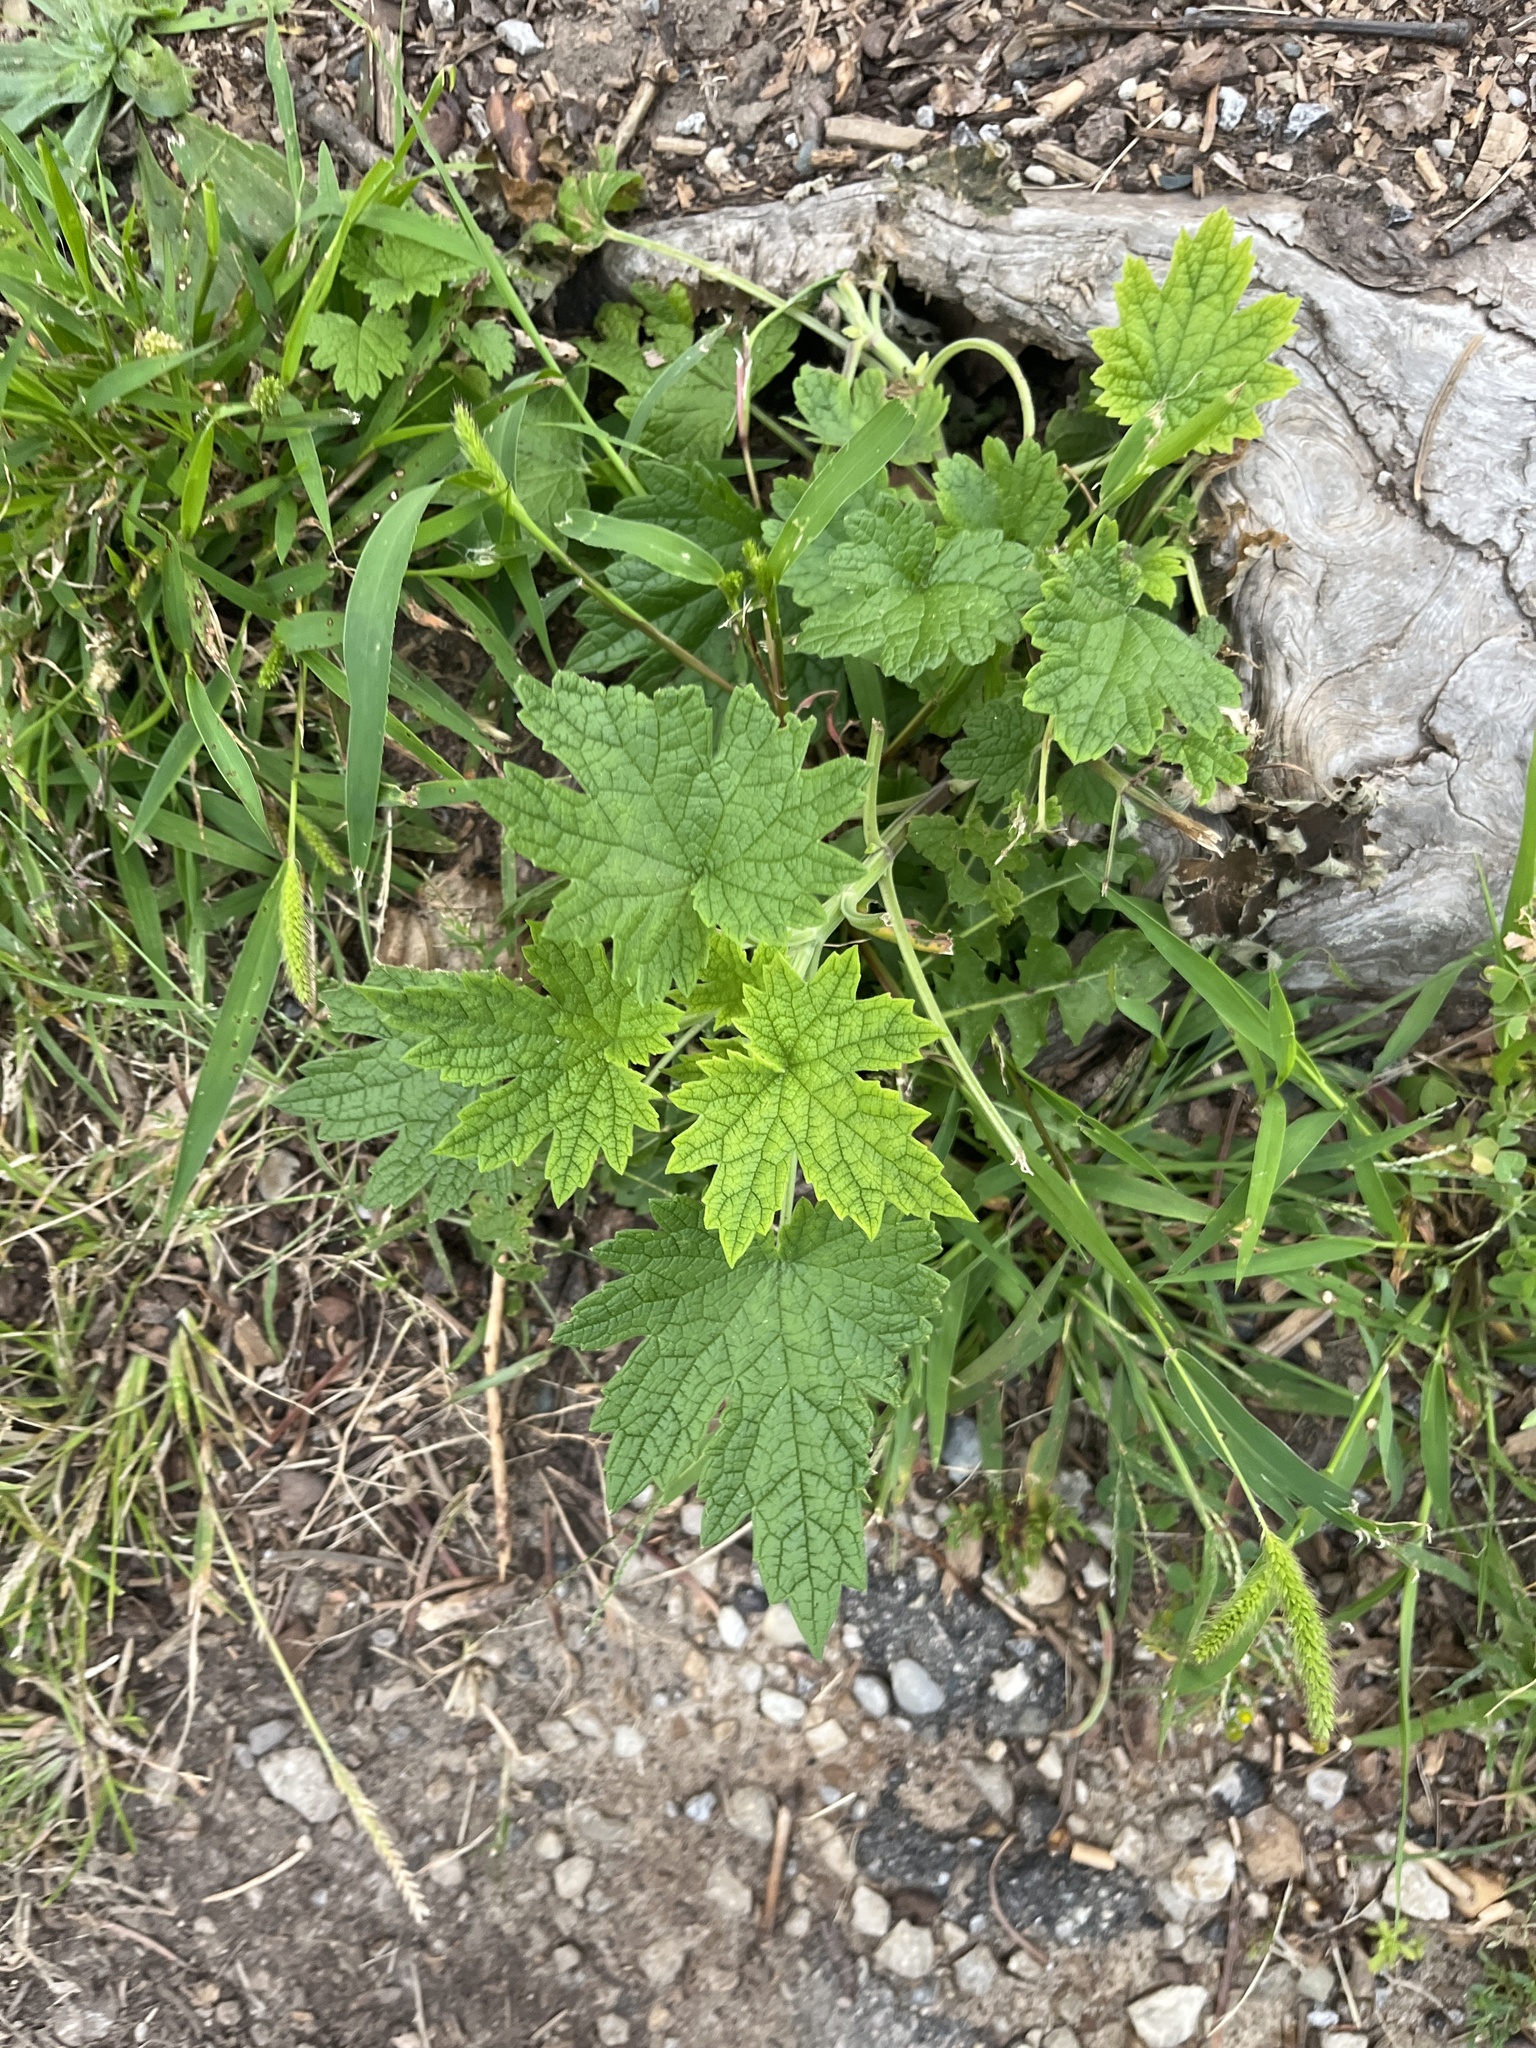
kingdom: Plantae
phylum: Tracheophyta
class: Magnoliopsida
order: Lamiales
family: Lamiaceae
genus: Leonurus
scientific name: Leonurus cardiaca
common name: Motherwort
